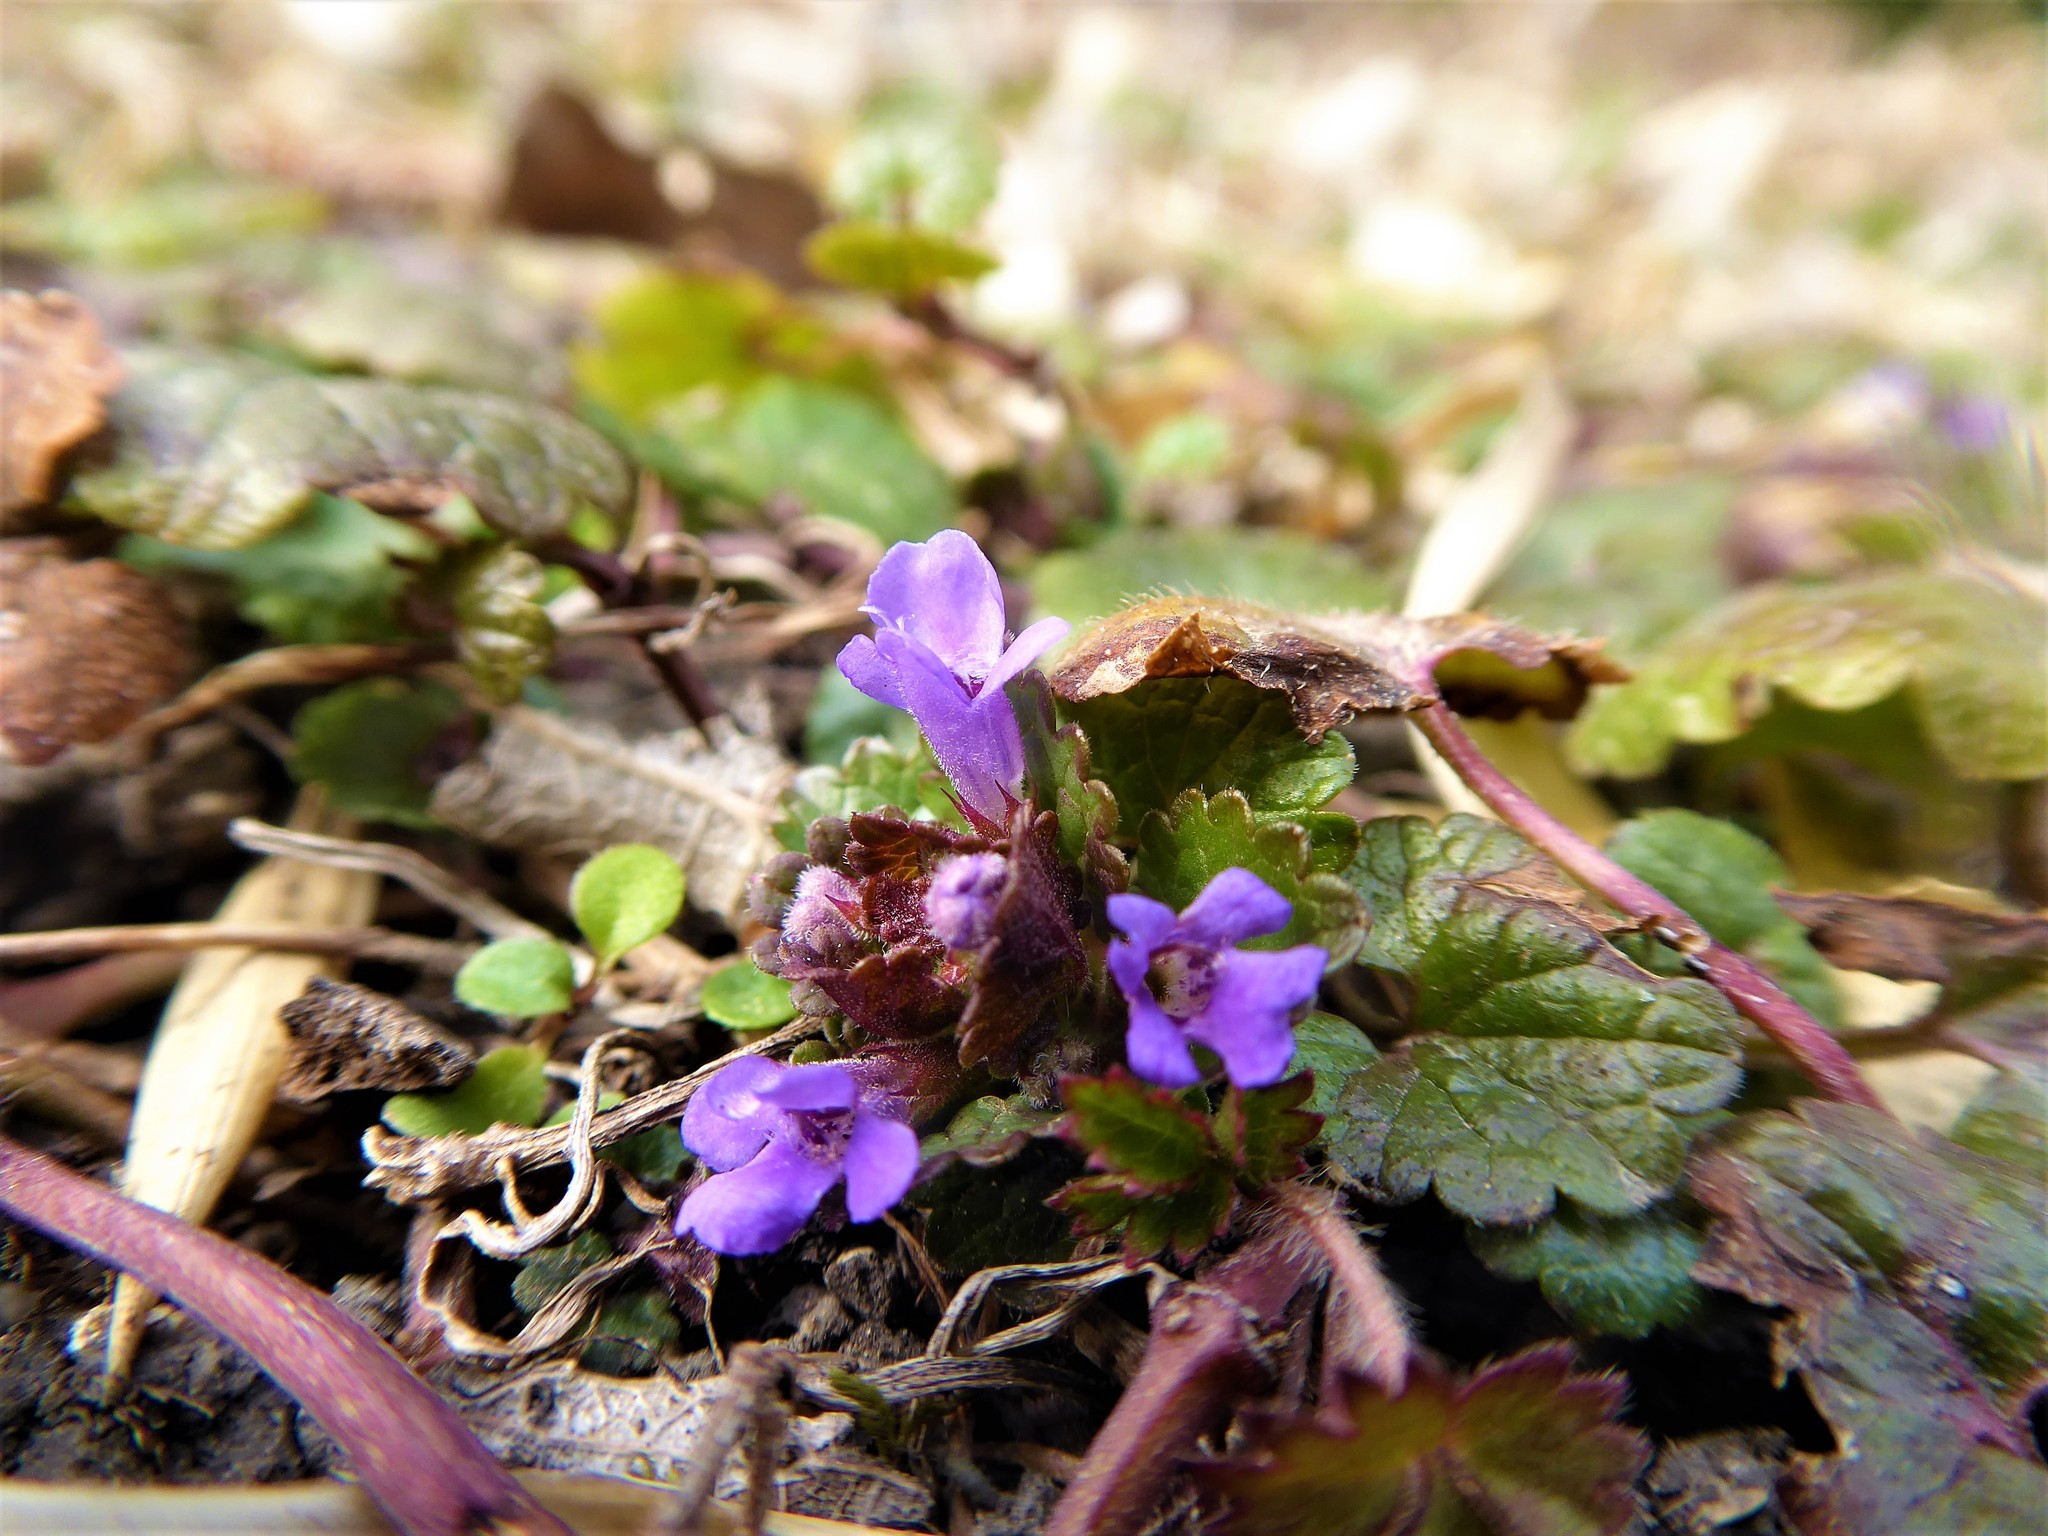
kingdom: Plantae
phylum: Tracheophyta
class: Magnoliopsida
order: Lamiales
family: Lamiaceae
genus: Glechoma
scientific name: Glechoma hederacea
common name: Ground ivy
